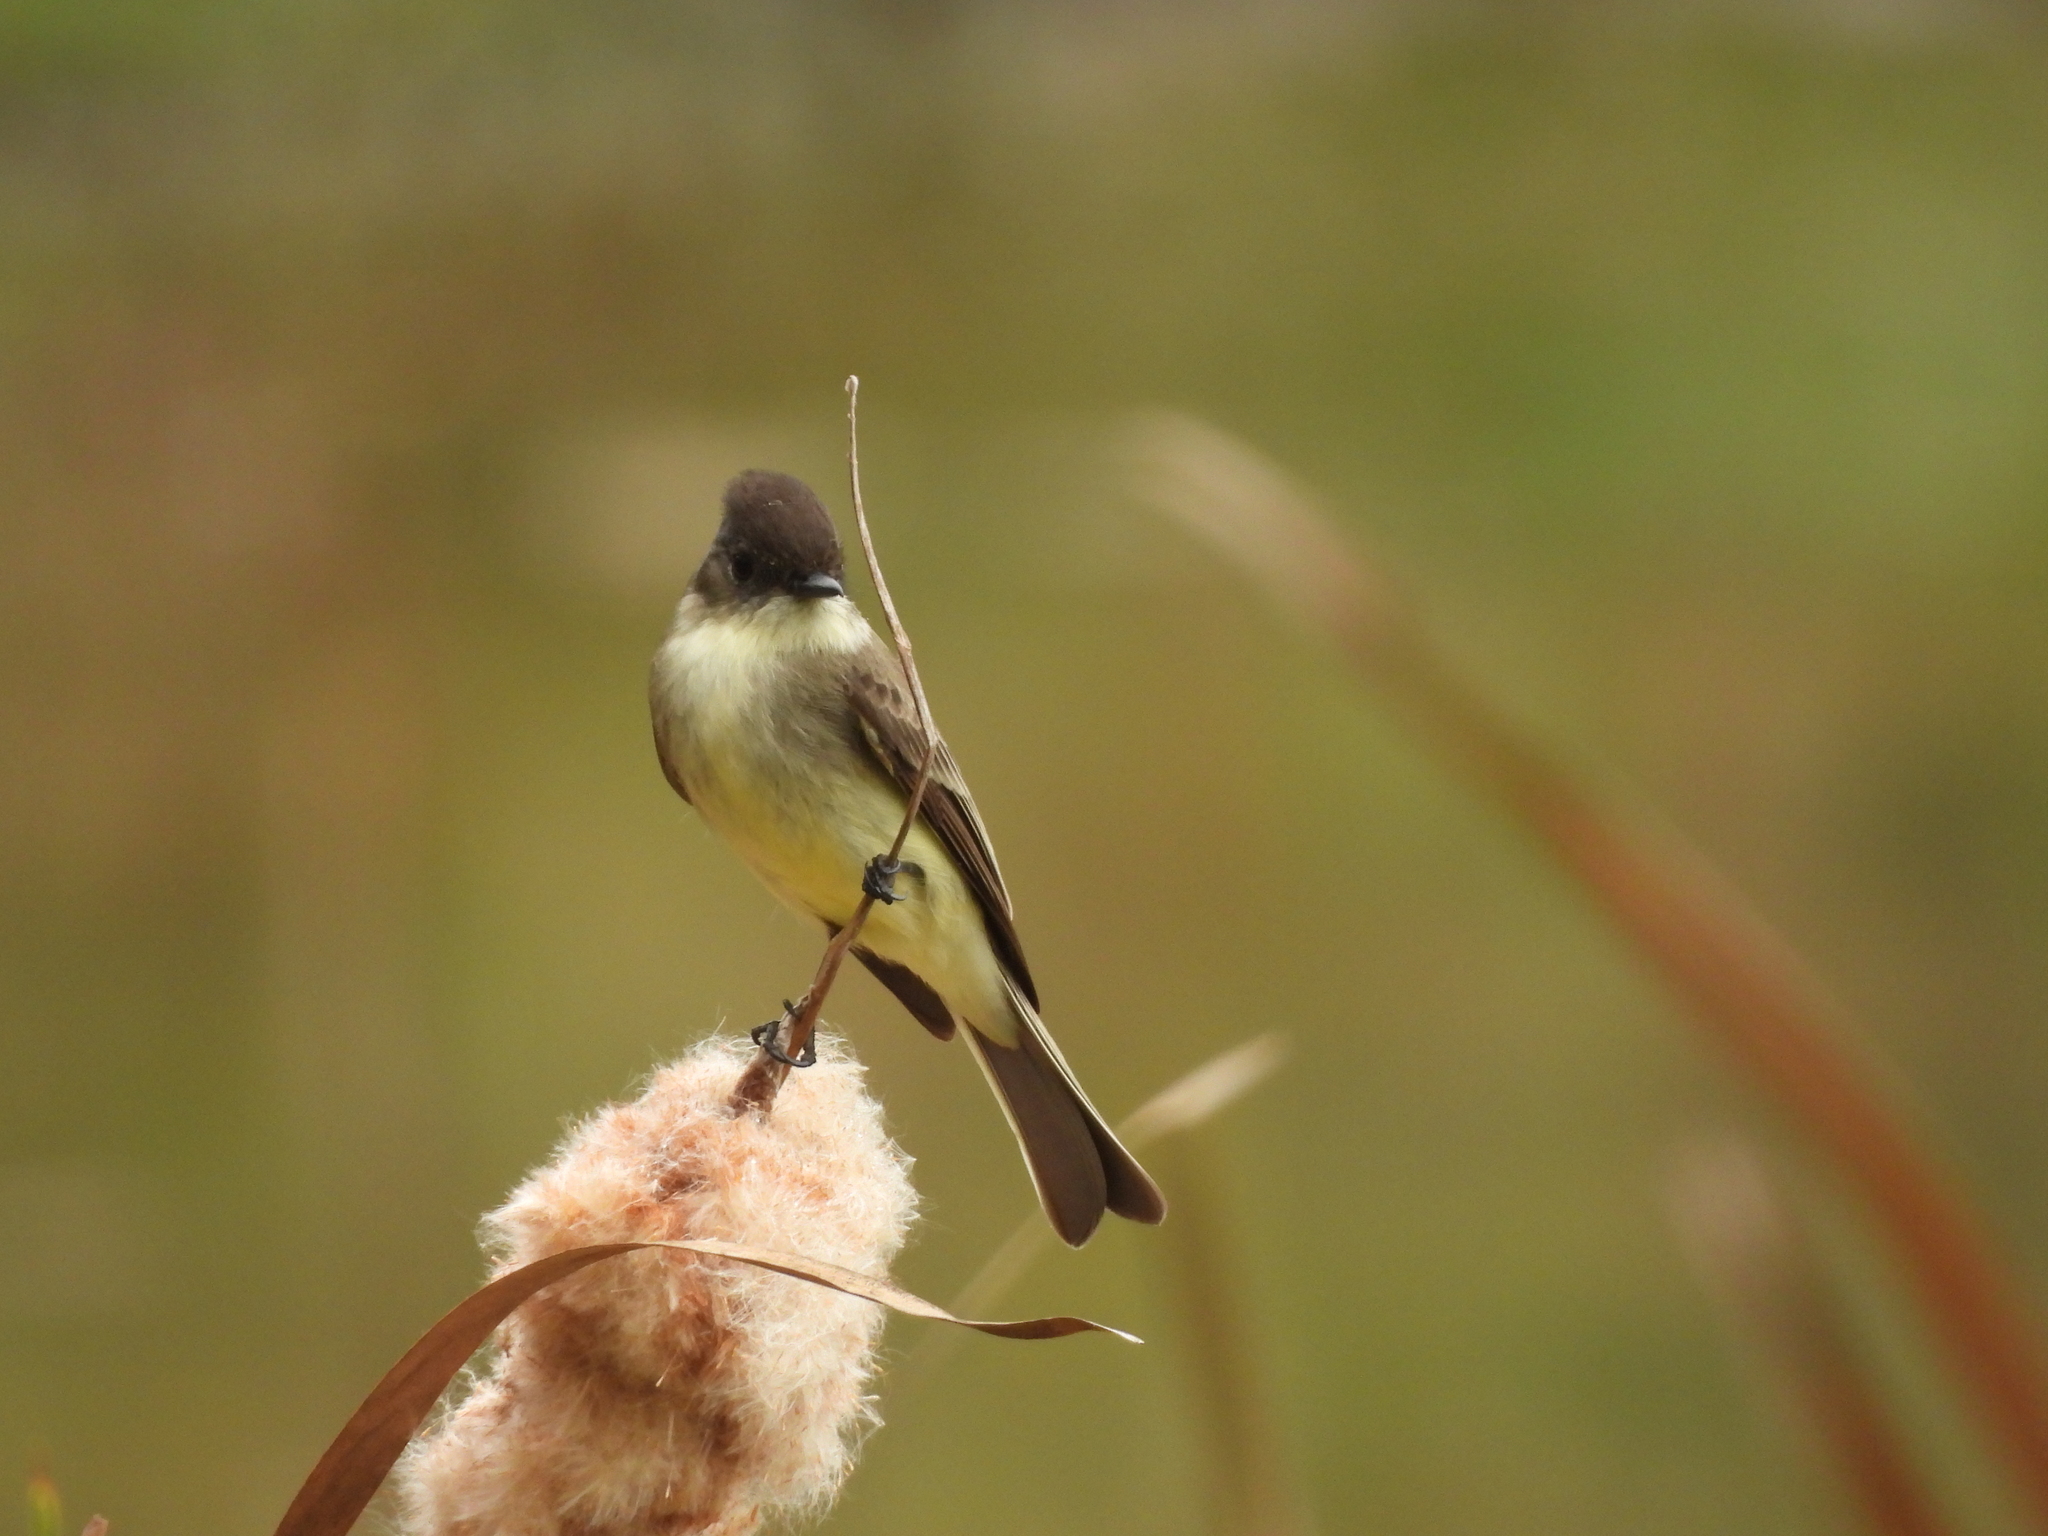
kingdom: Animalia
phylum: Chordata
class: Aves
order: Passeriformes
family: Tyrannidae
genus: Sayornis
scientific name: Sayornis phoebe
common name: Eastern phoebe
